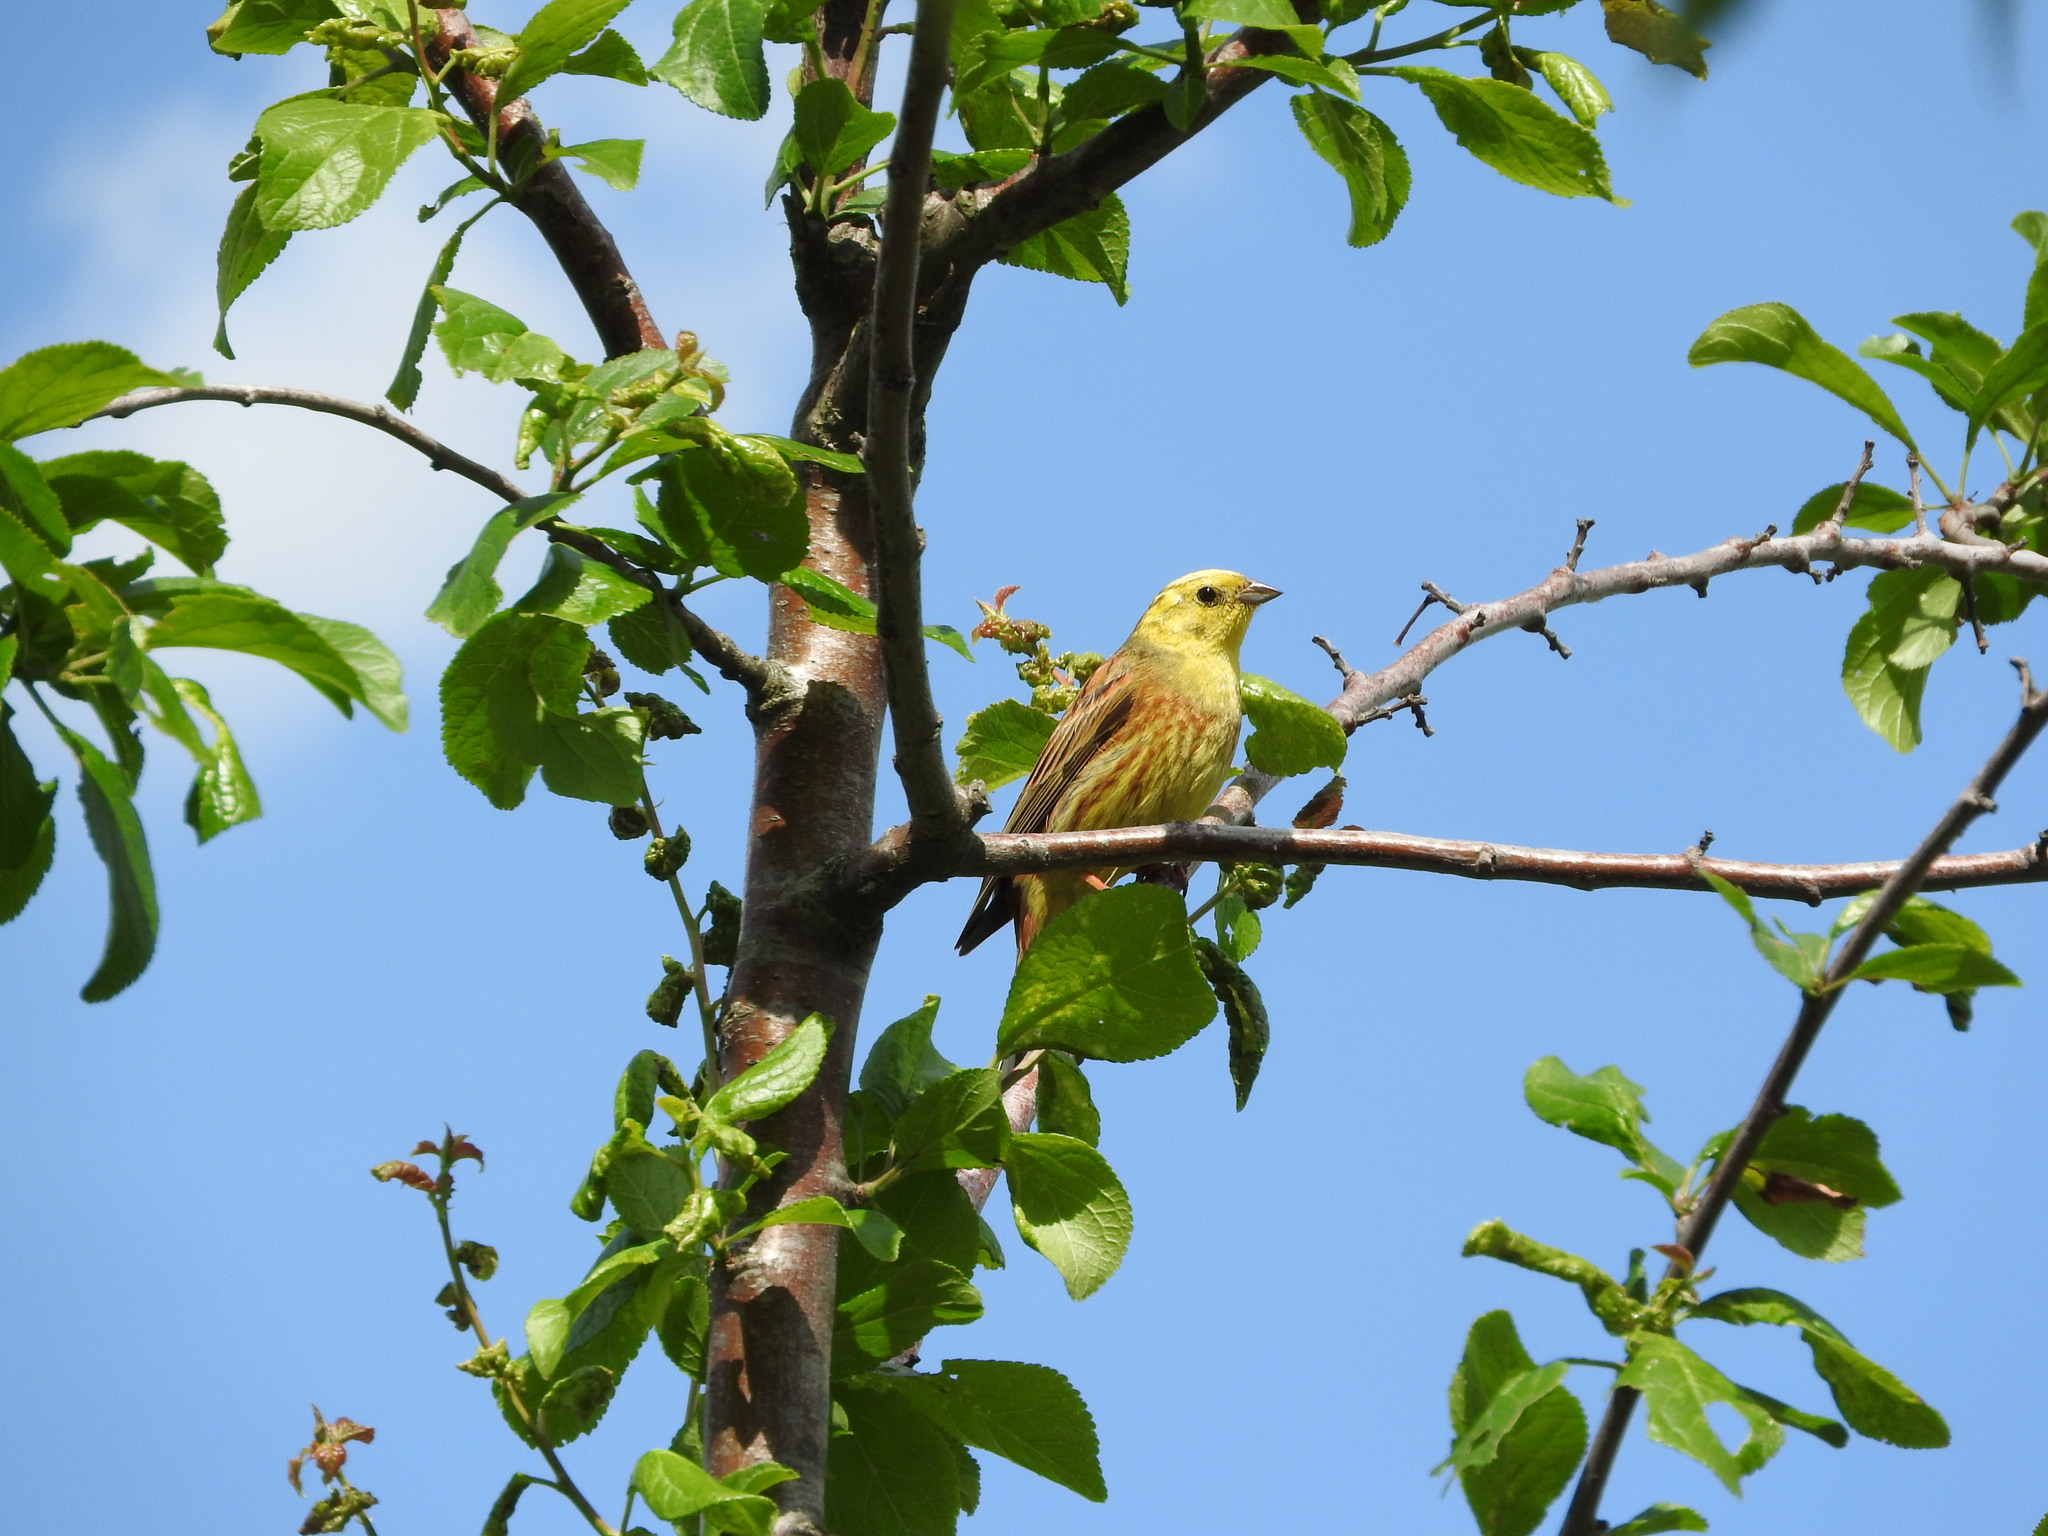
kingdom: Animalia
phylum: Chordata
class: Aves
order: Passeriformes
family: Emberizidae
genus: Emberiza
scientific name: Emberiza citrinella
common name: Yellowhammer
